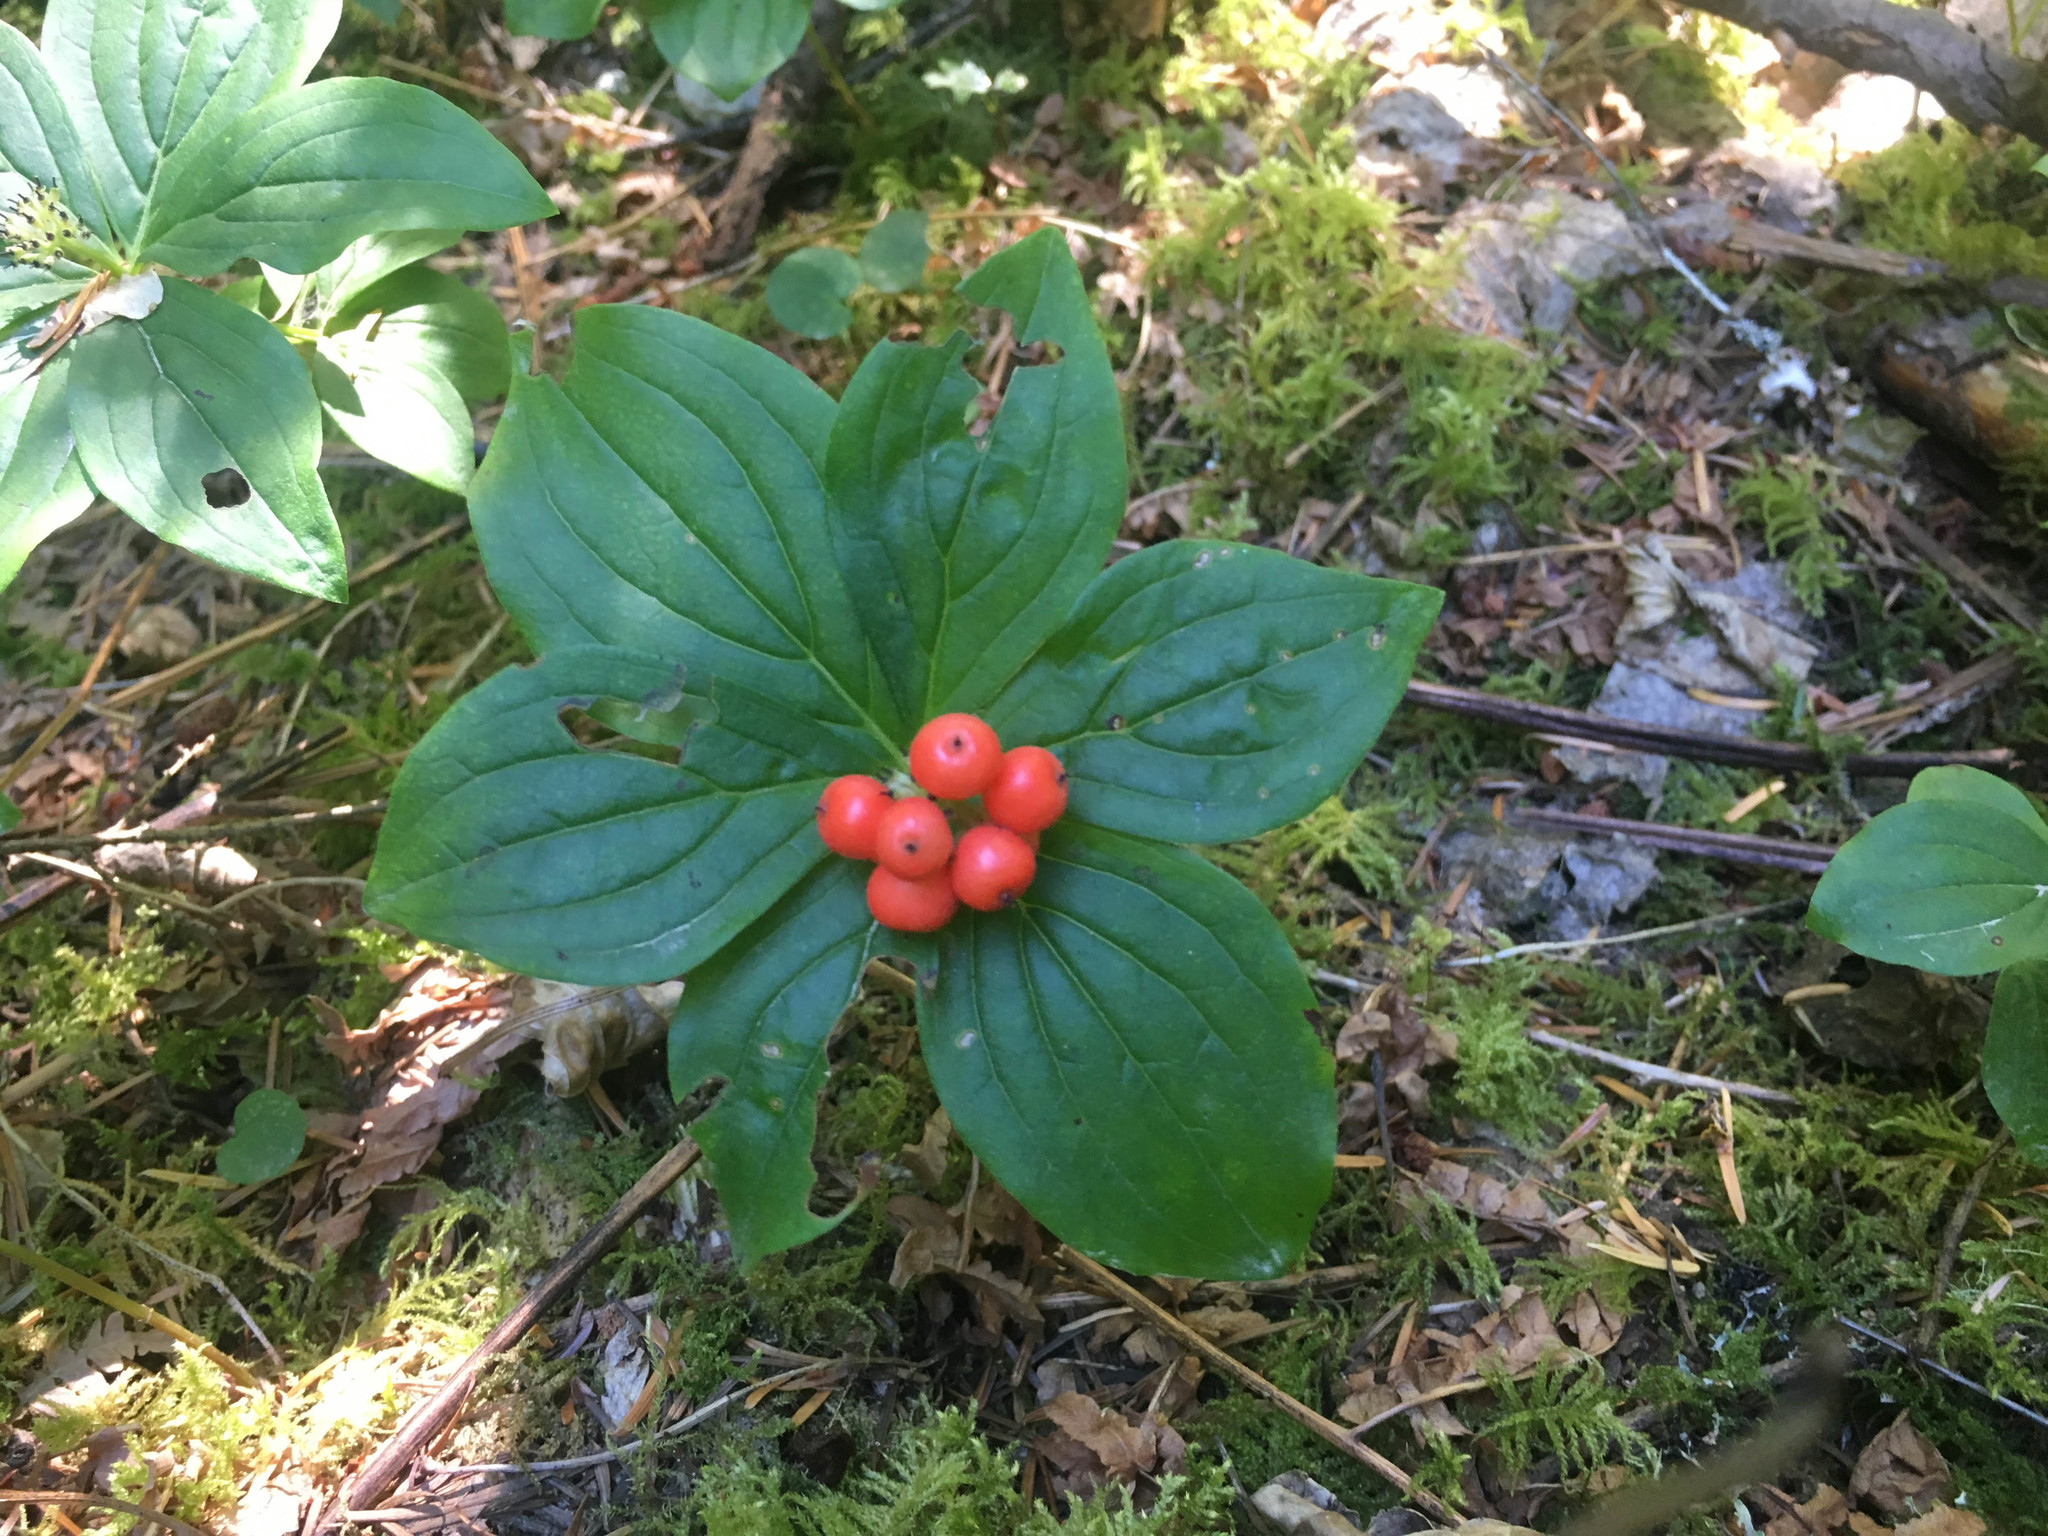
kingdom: Plantae
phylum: Tracheophyta
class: Magnoliopsida
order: Cornales
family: Cornaceae
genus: Cornus
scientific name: Cornus unalaschkensis
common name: Alaska bunchberry
